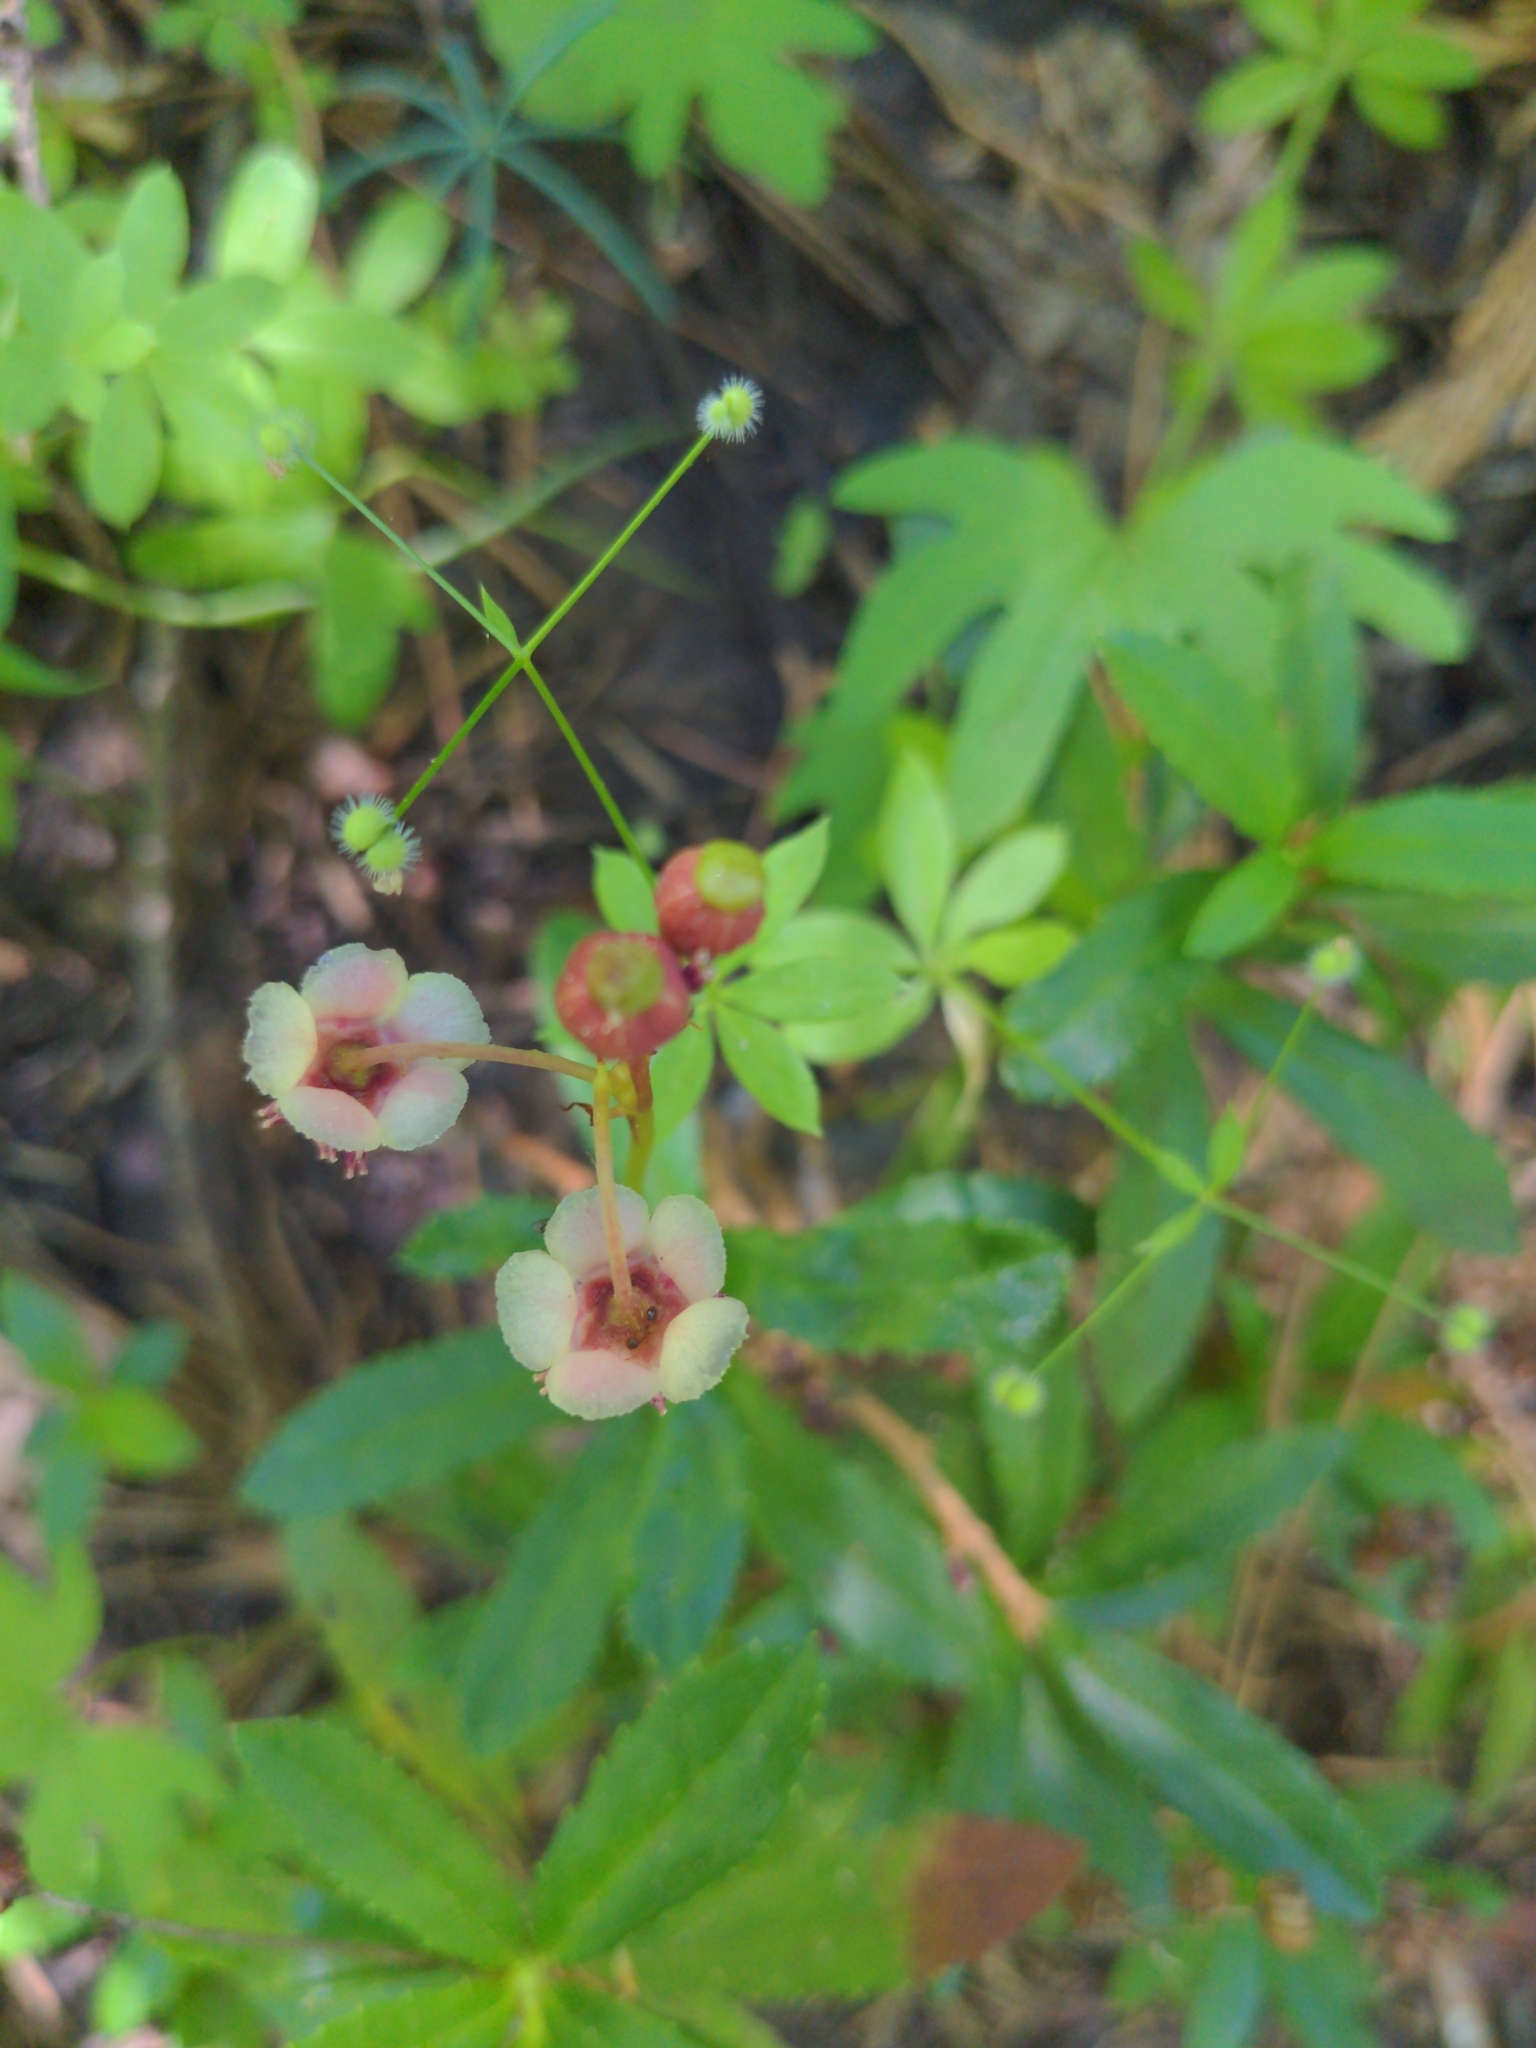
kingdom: Plantae
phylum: Tracheophyta
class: Magnoliopsida
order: Ericales
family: Ericaceae
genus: Chimaphila
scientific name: Chimaphila umbellata
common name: Pipsissewa
